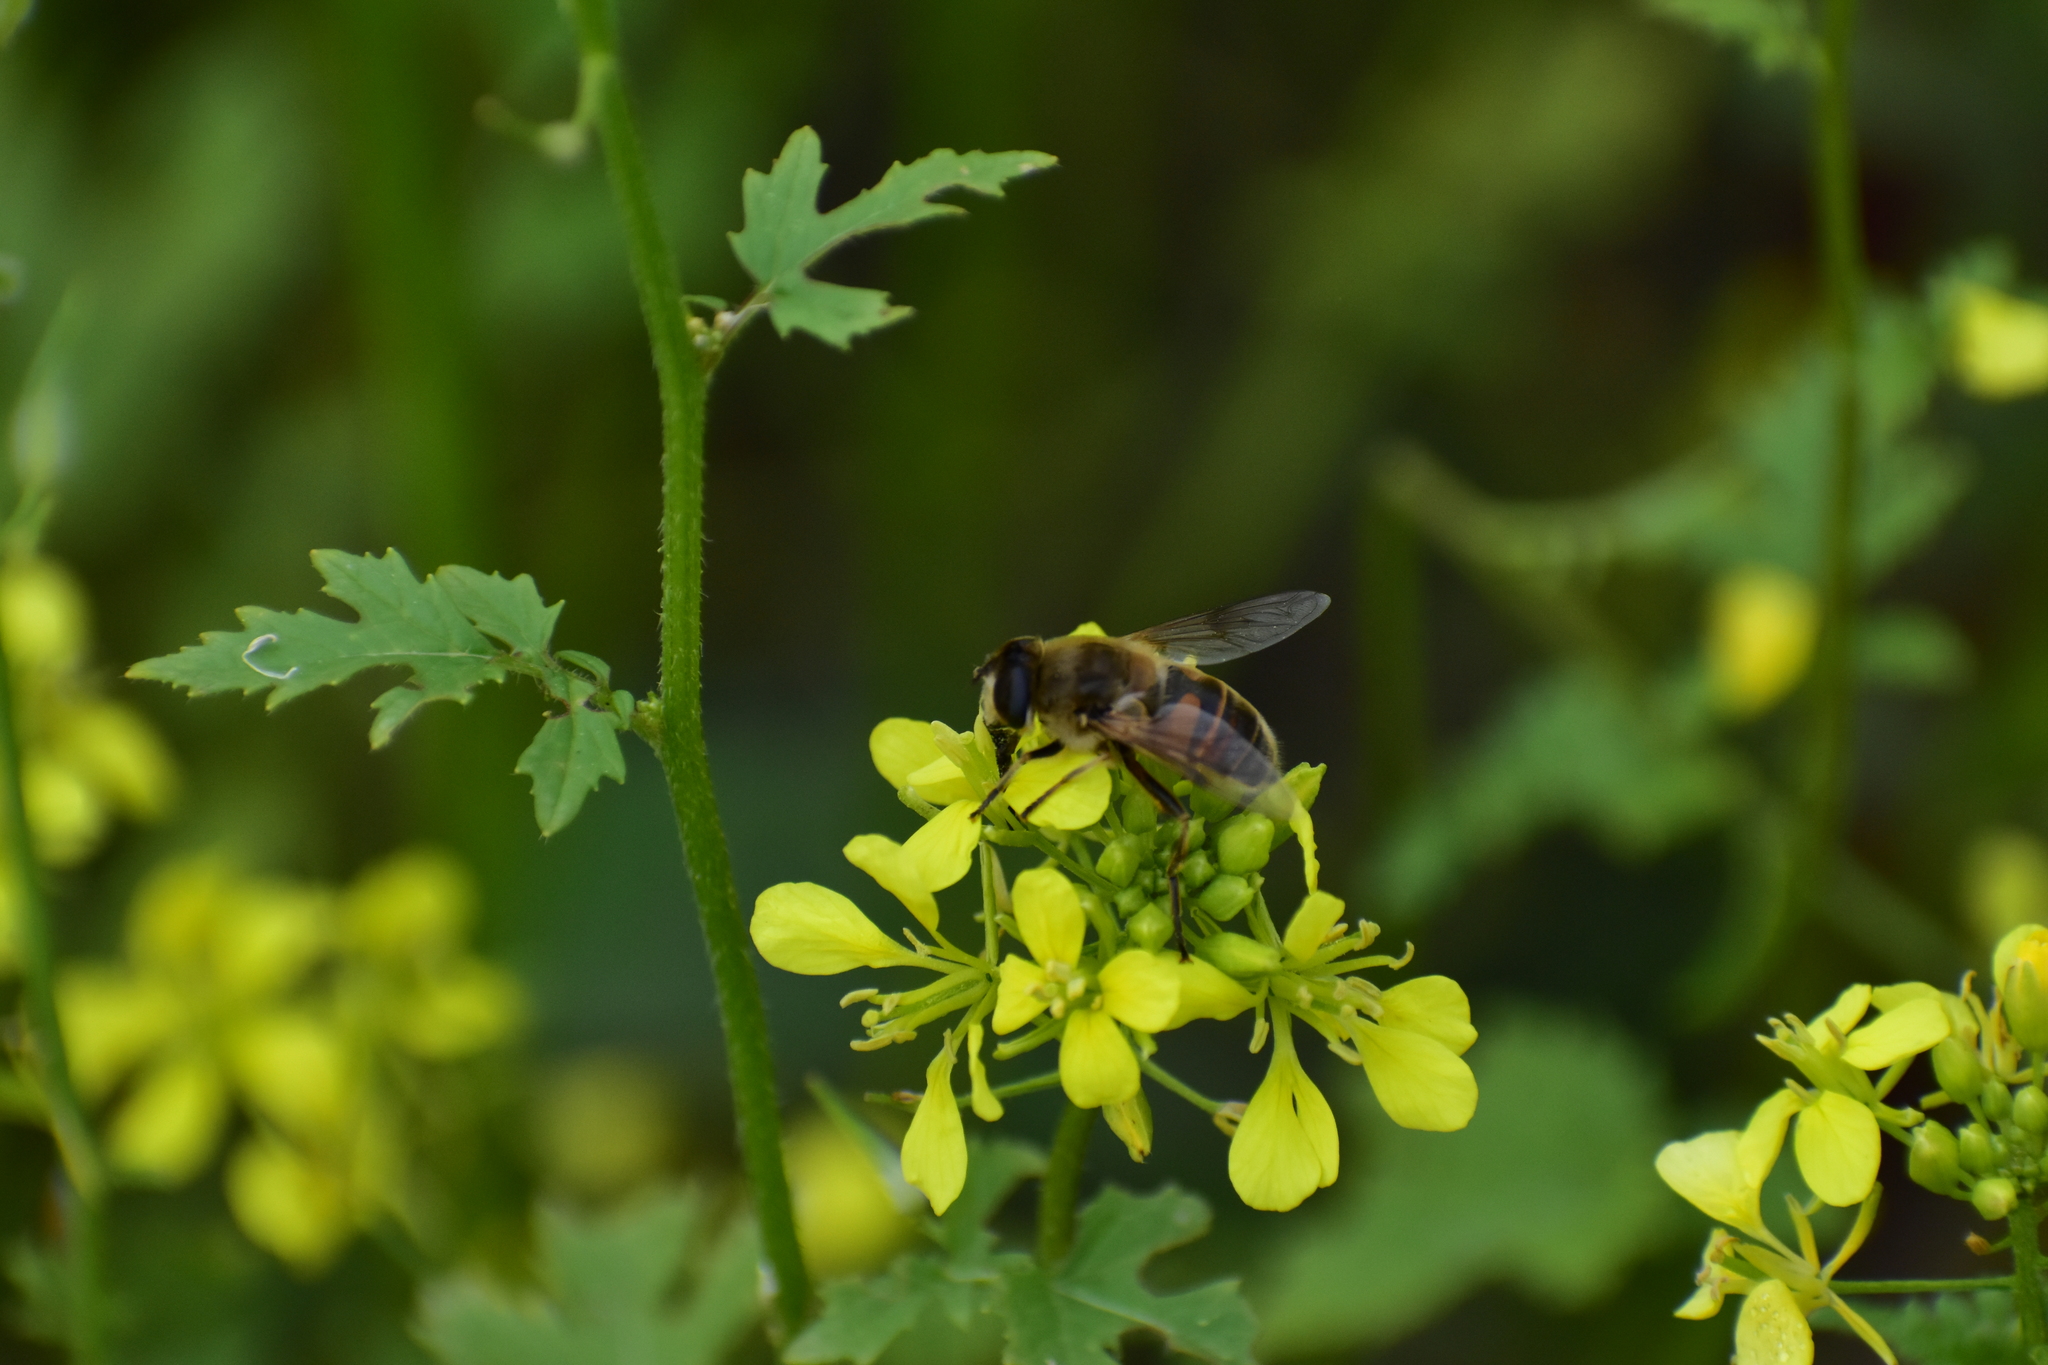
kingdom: Animalia
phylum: Arthropoda
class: Insecta
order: Diptera
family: Syrphidae
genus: Eristalis
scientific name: Eristalis tenax
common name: Drone fly
